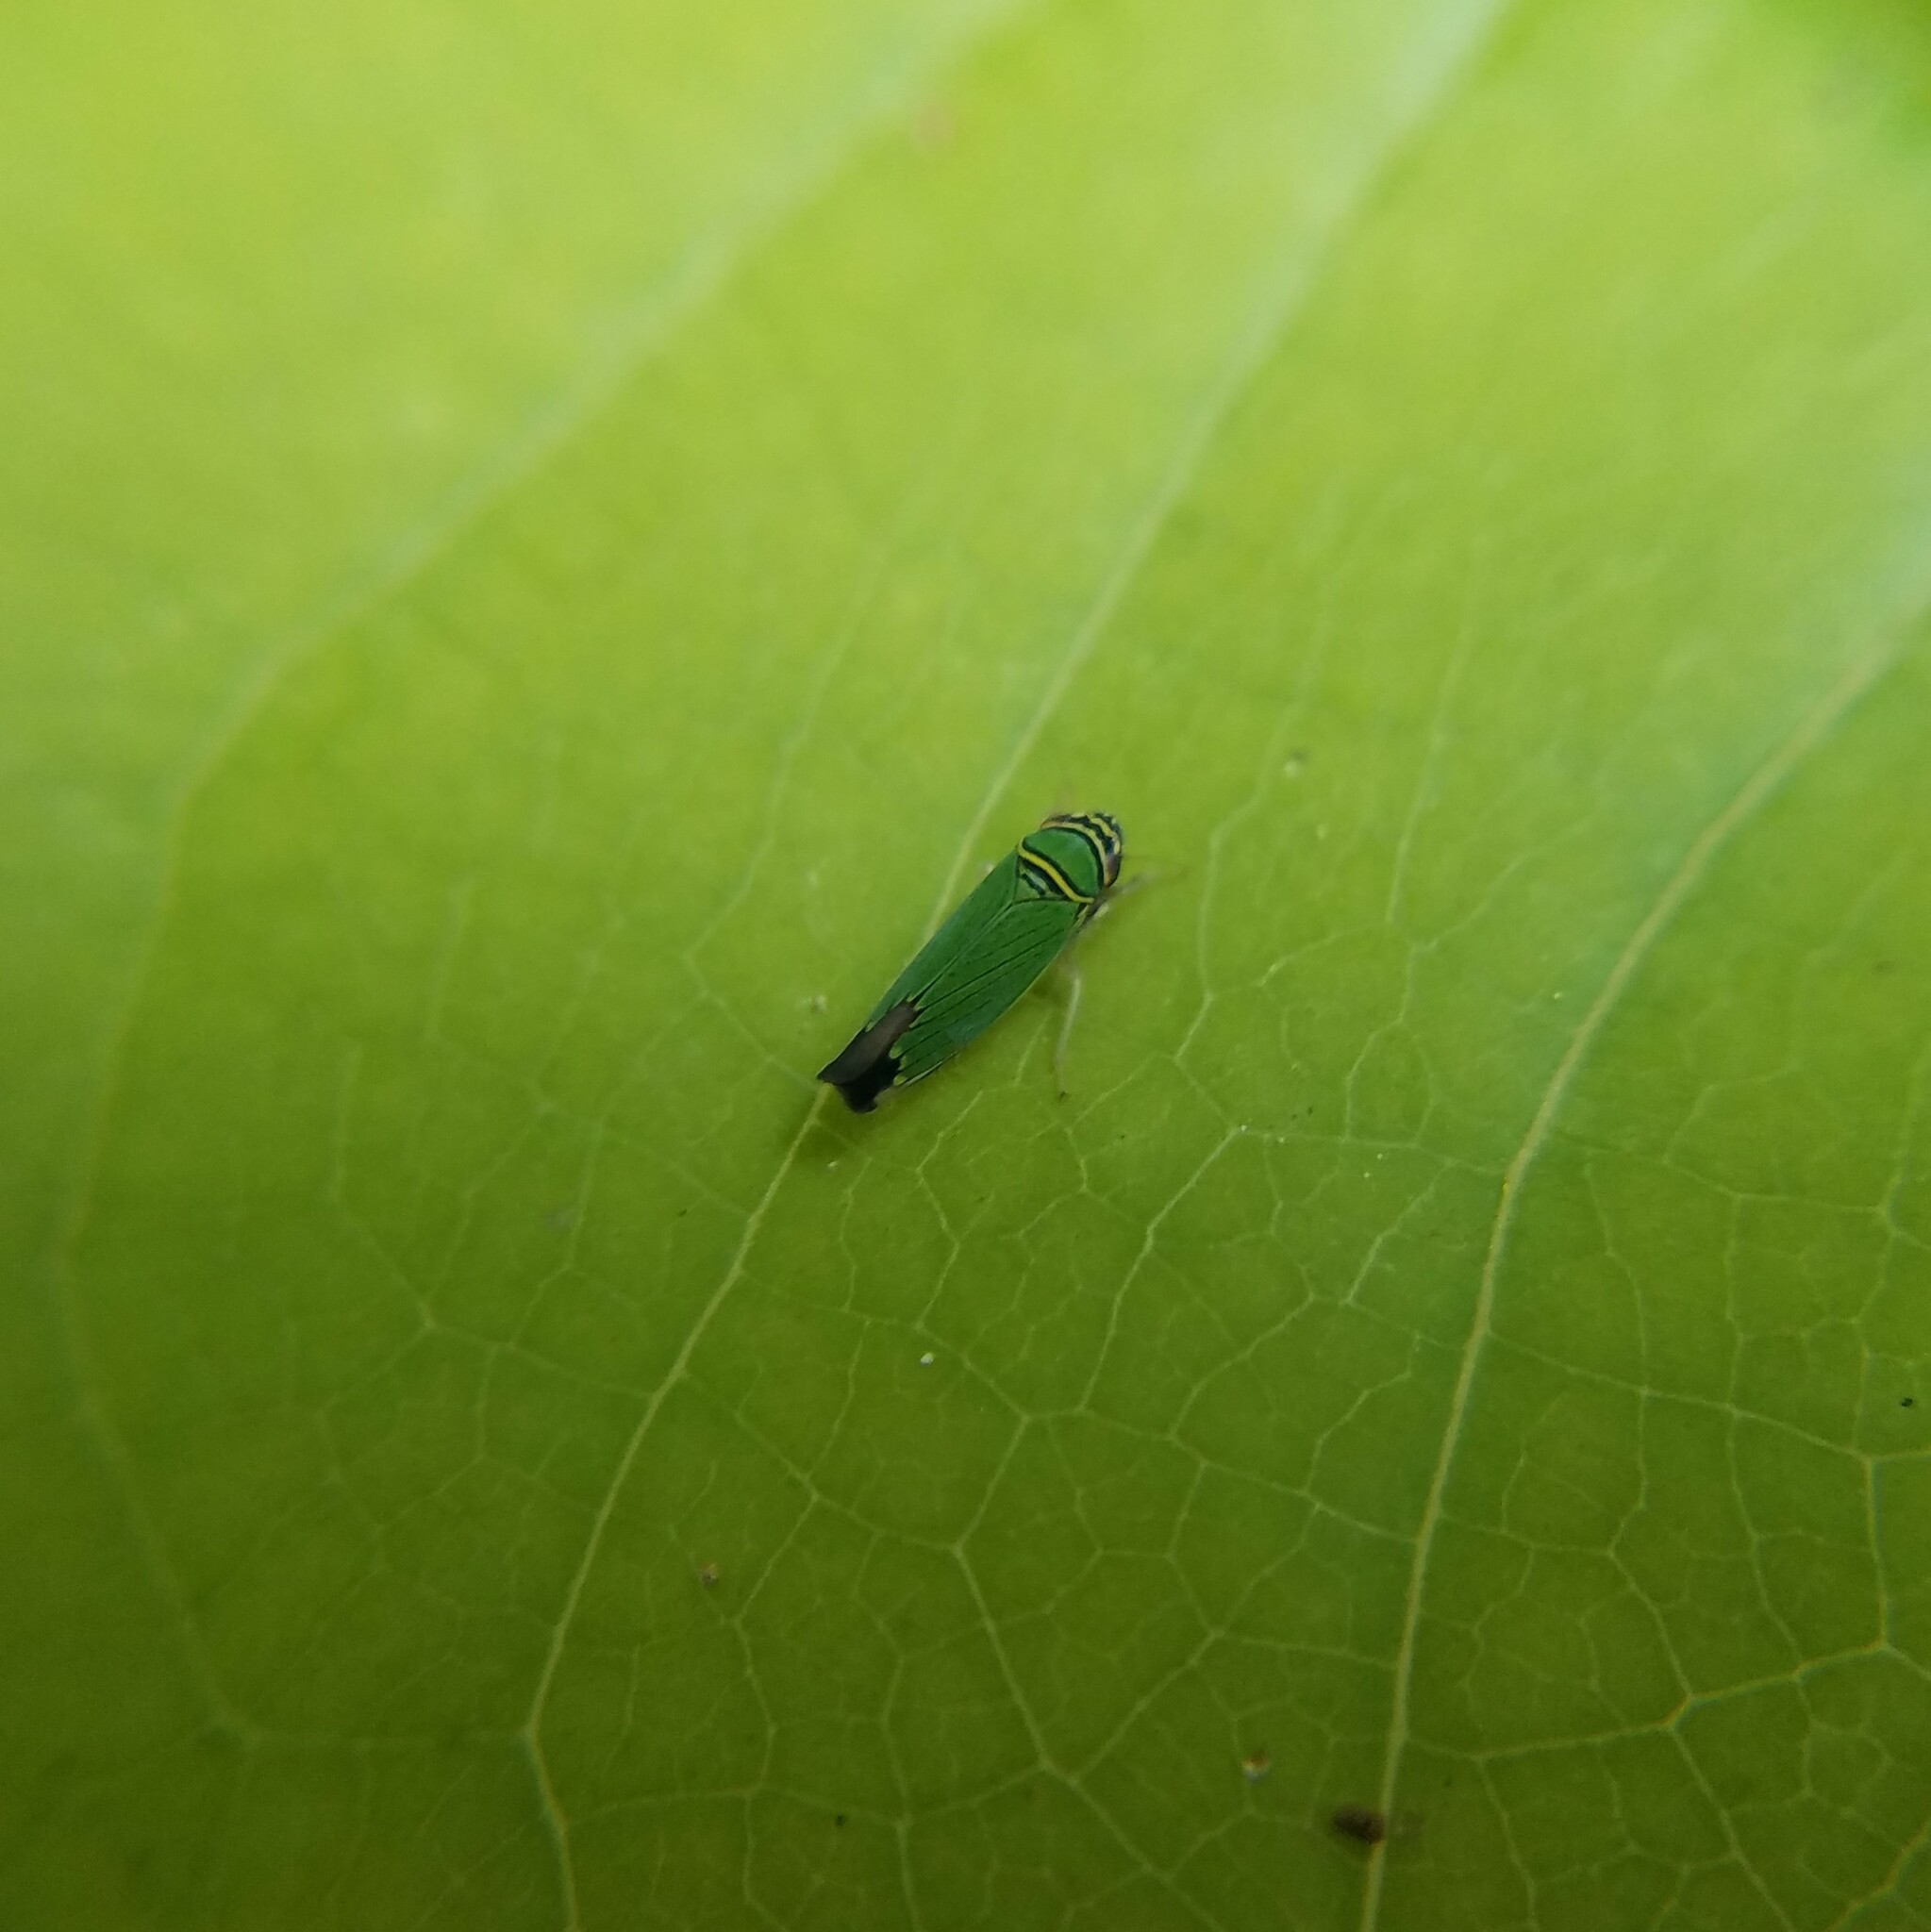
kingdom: Animalia
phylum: Arthropoda
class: Insecta
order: Hemiptera
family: Cicadellidae
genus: Tylozygus
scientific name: Tylozygus geometricus
